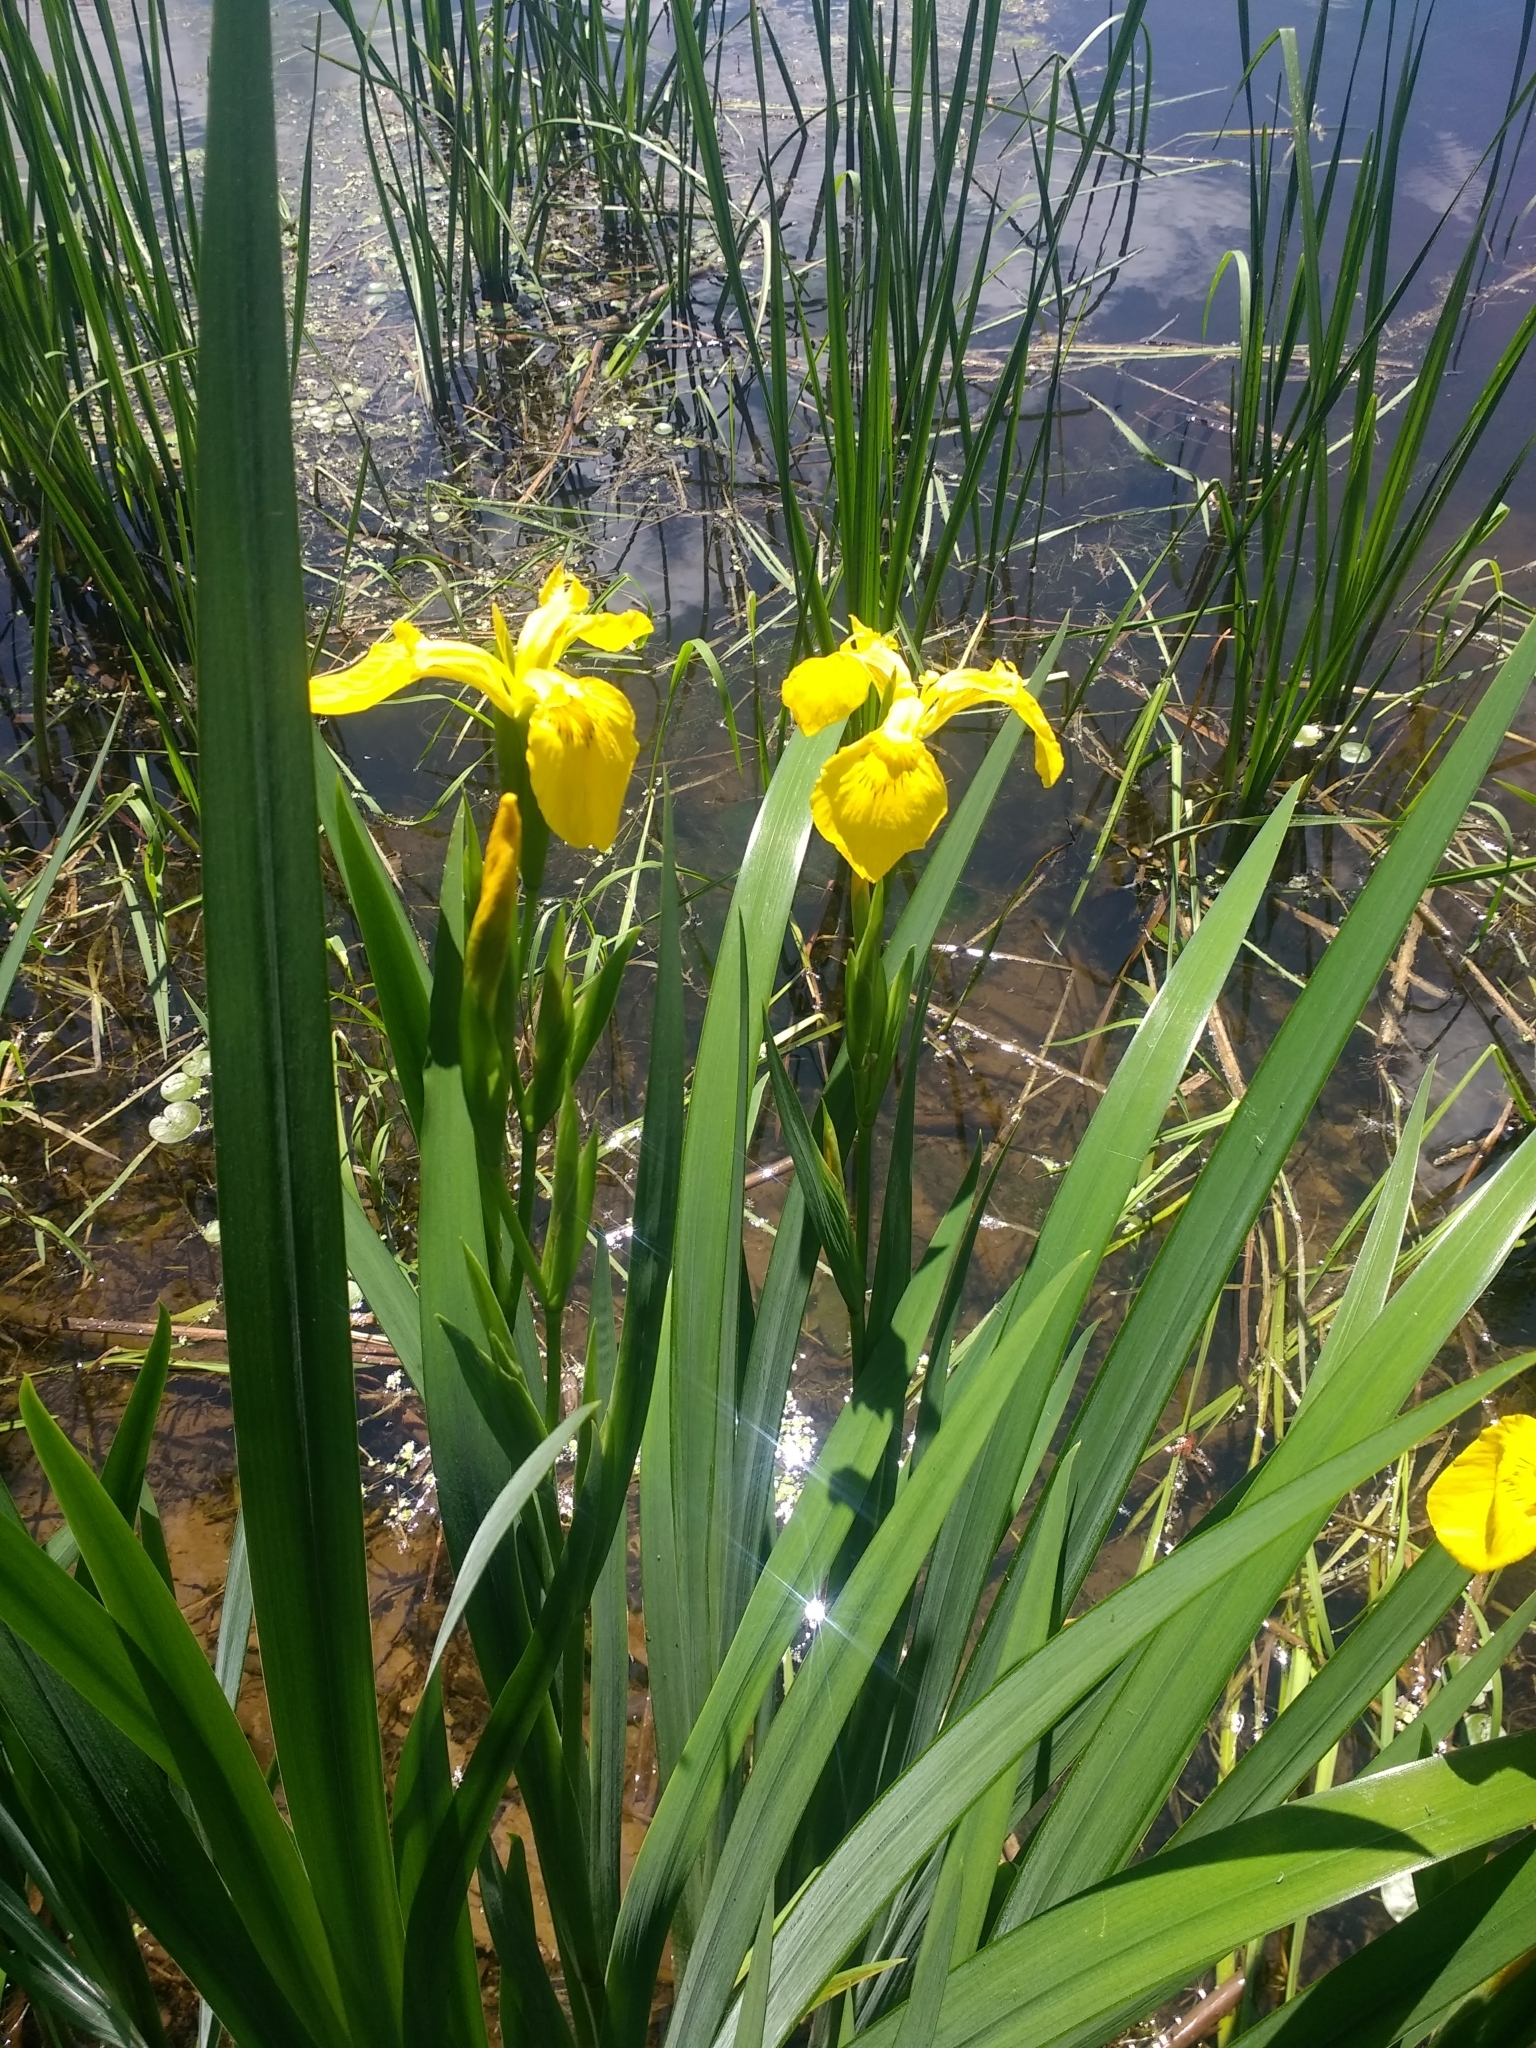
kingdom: Plantae
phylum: Tracheophyta
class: Liliopsida
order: Asparagales
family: Iridaceae
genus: Iris
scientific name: Iris pseudacorus
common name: Yellow flag
